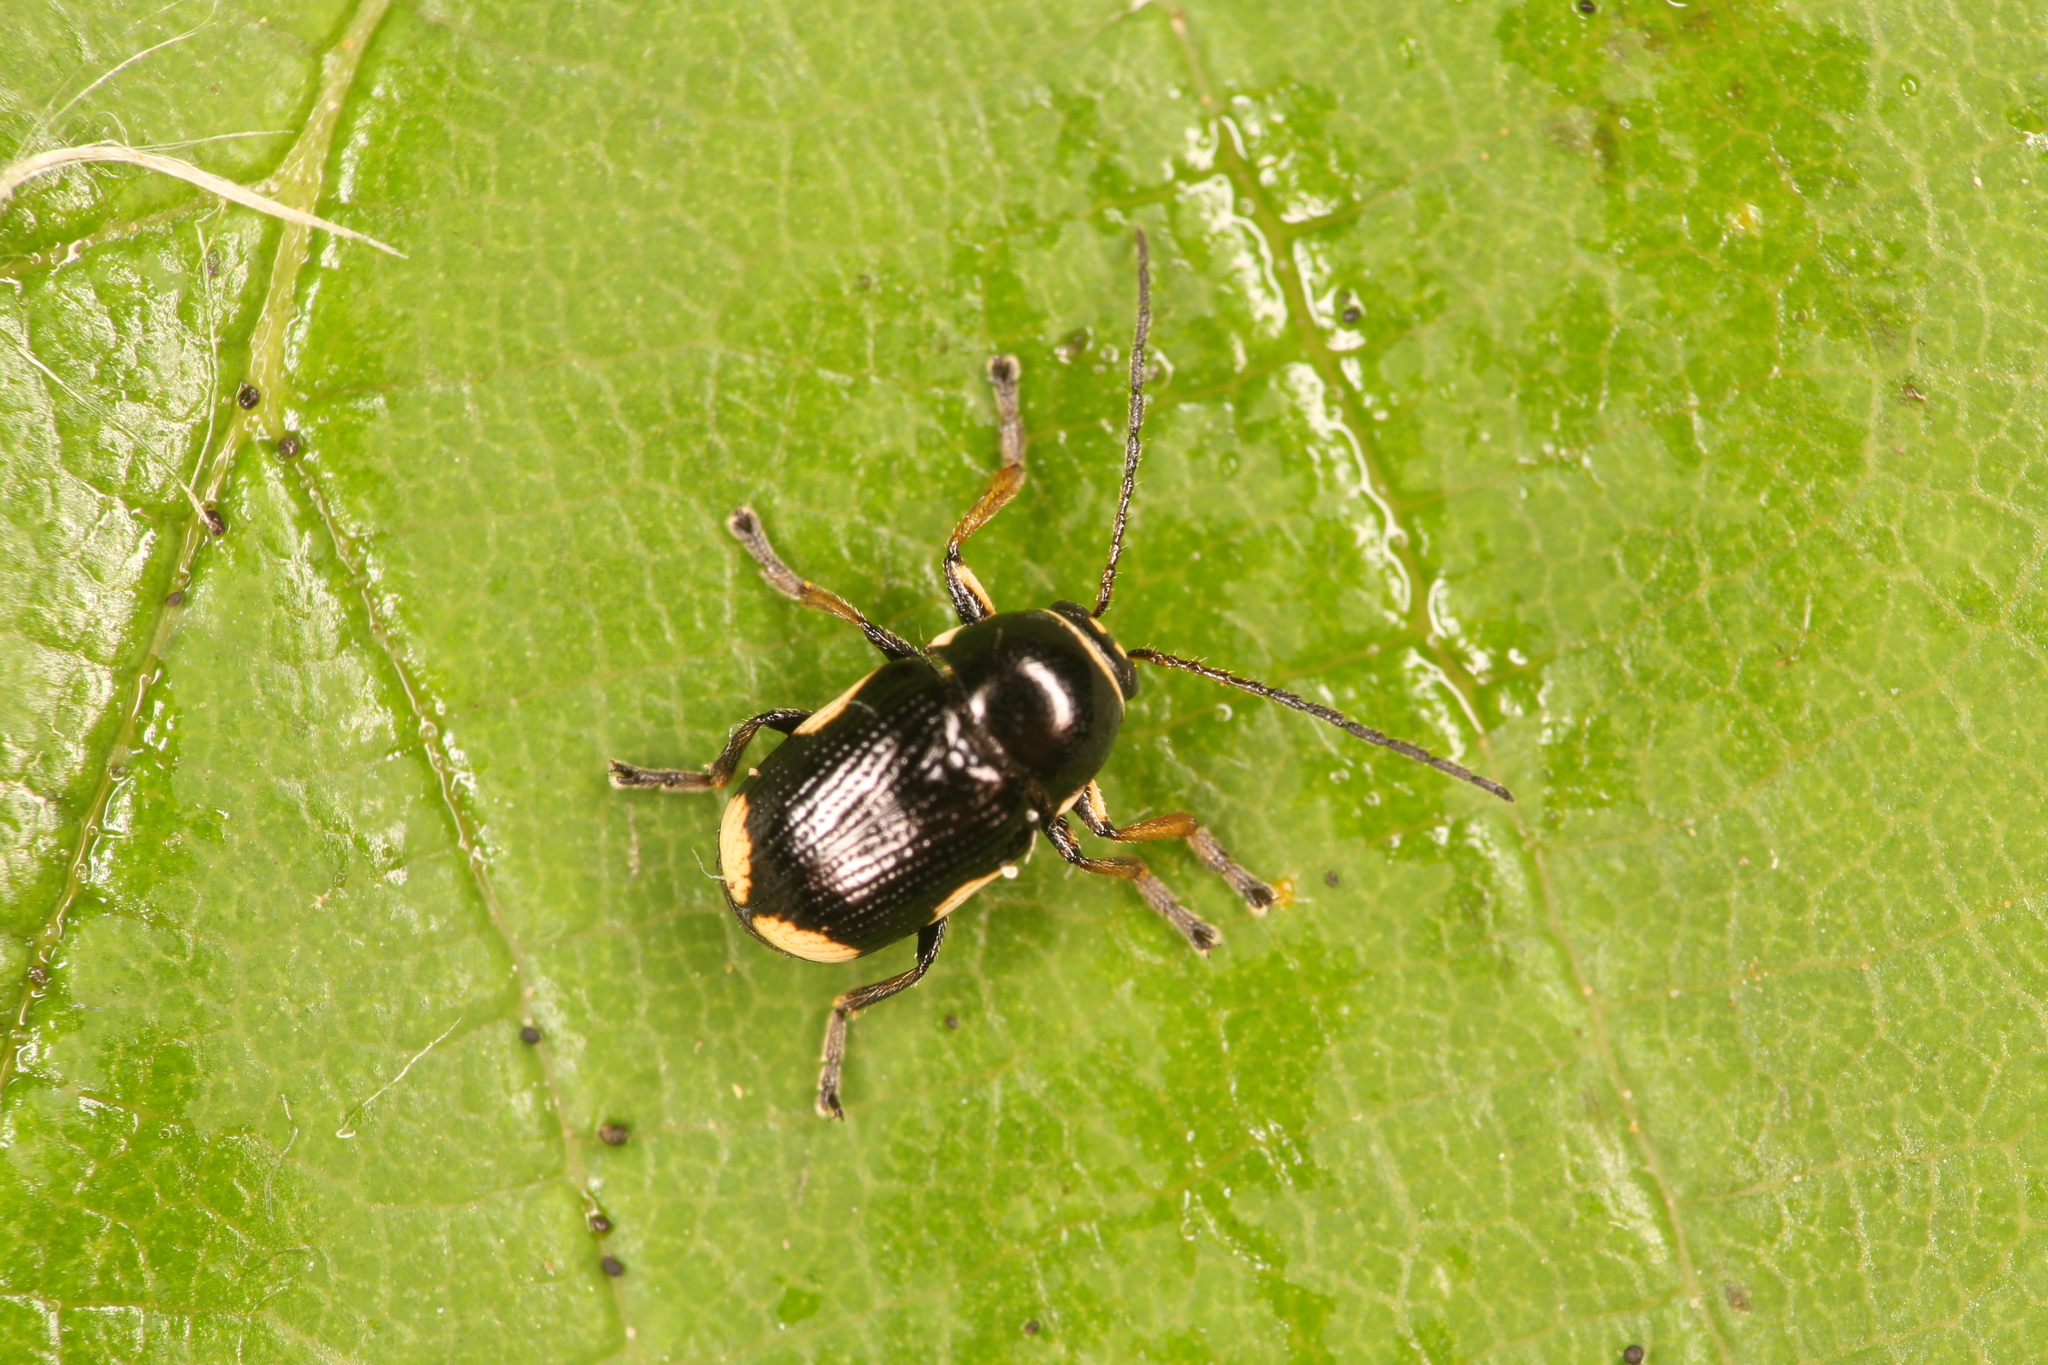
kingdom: Animalia
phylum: Arthropoda
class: Insecta
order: Coleoptera
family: Chrysomelidae
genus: Cryptocephalus
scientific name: Cryptocephalus moraei
